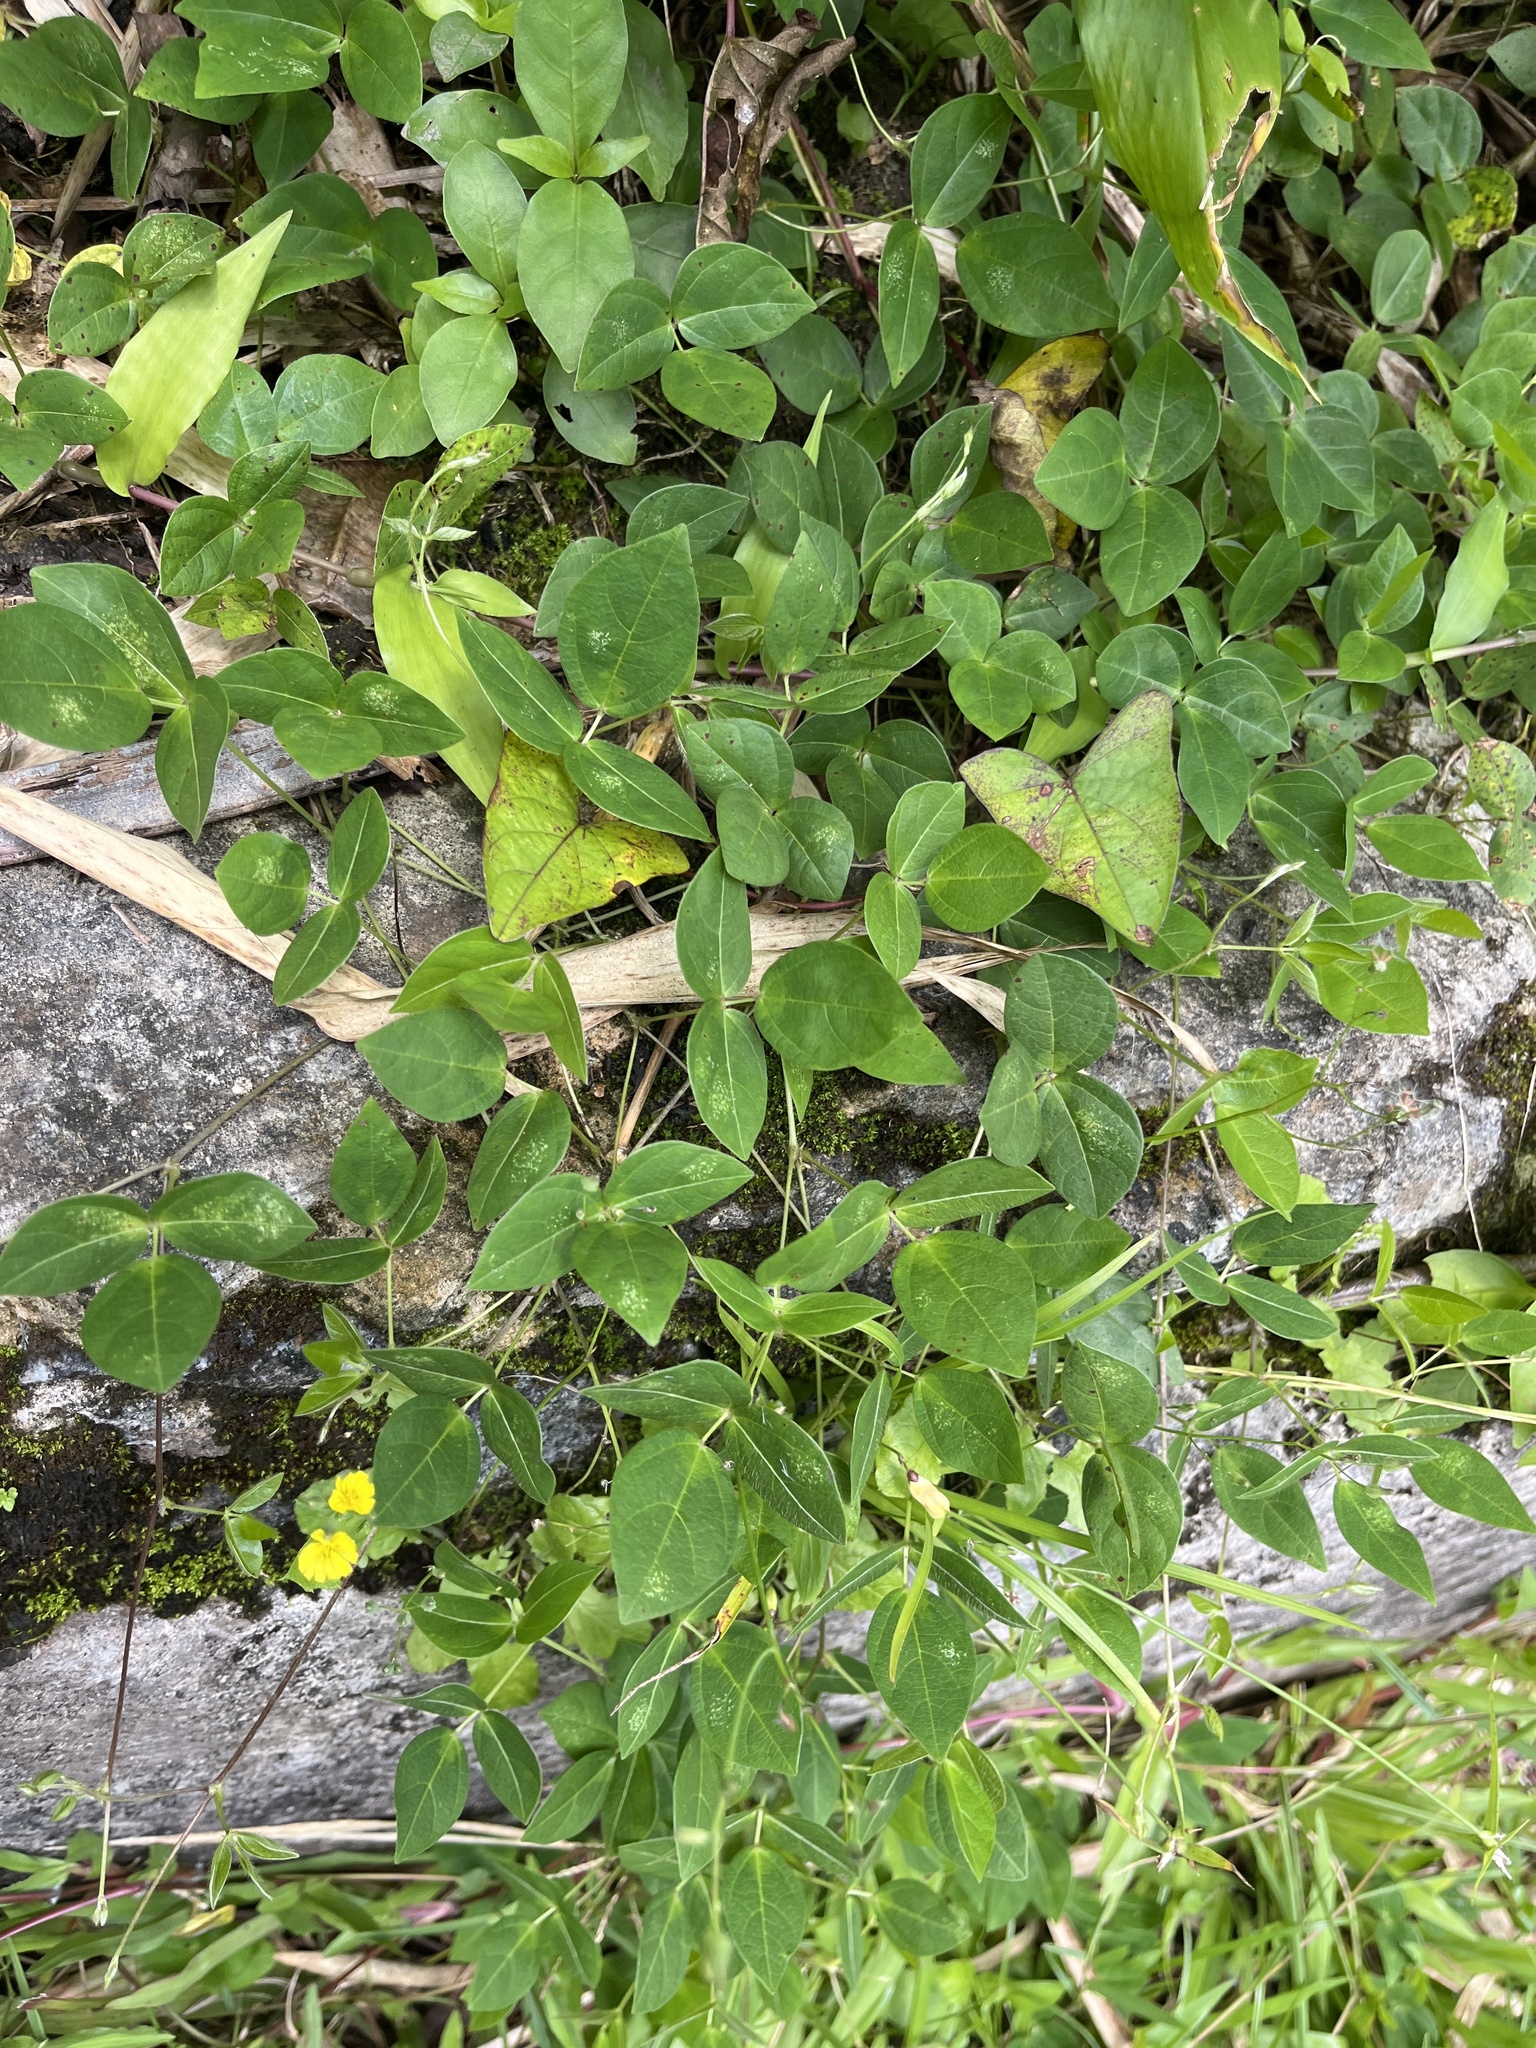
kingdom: Plantae
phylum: Tracheophyta
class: Magnoliopsida
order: Fabales
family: Fabaceae
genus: Vigna
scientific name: Vigna hosei
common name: Sarawak-bean
